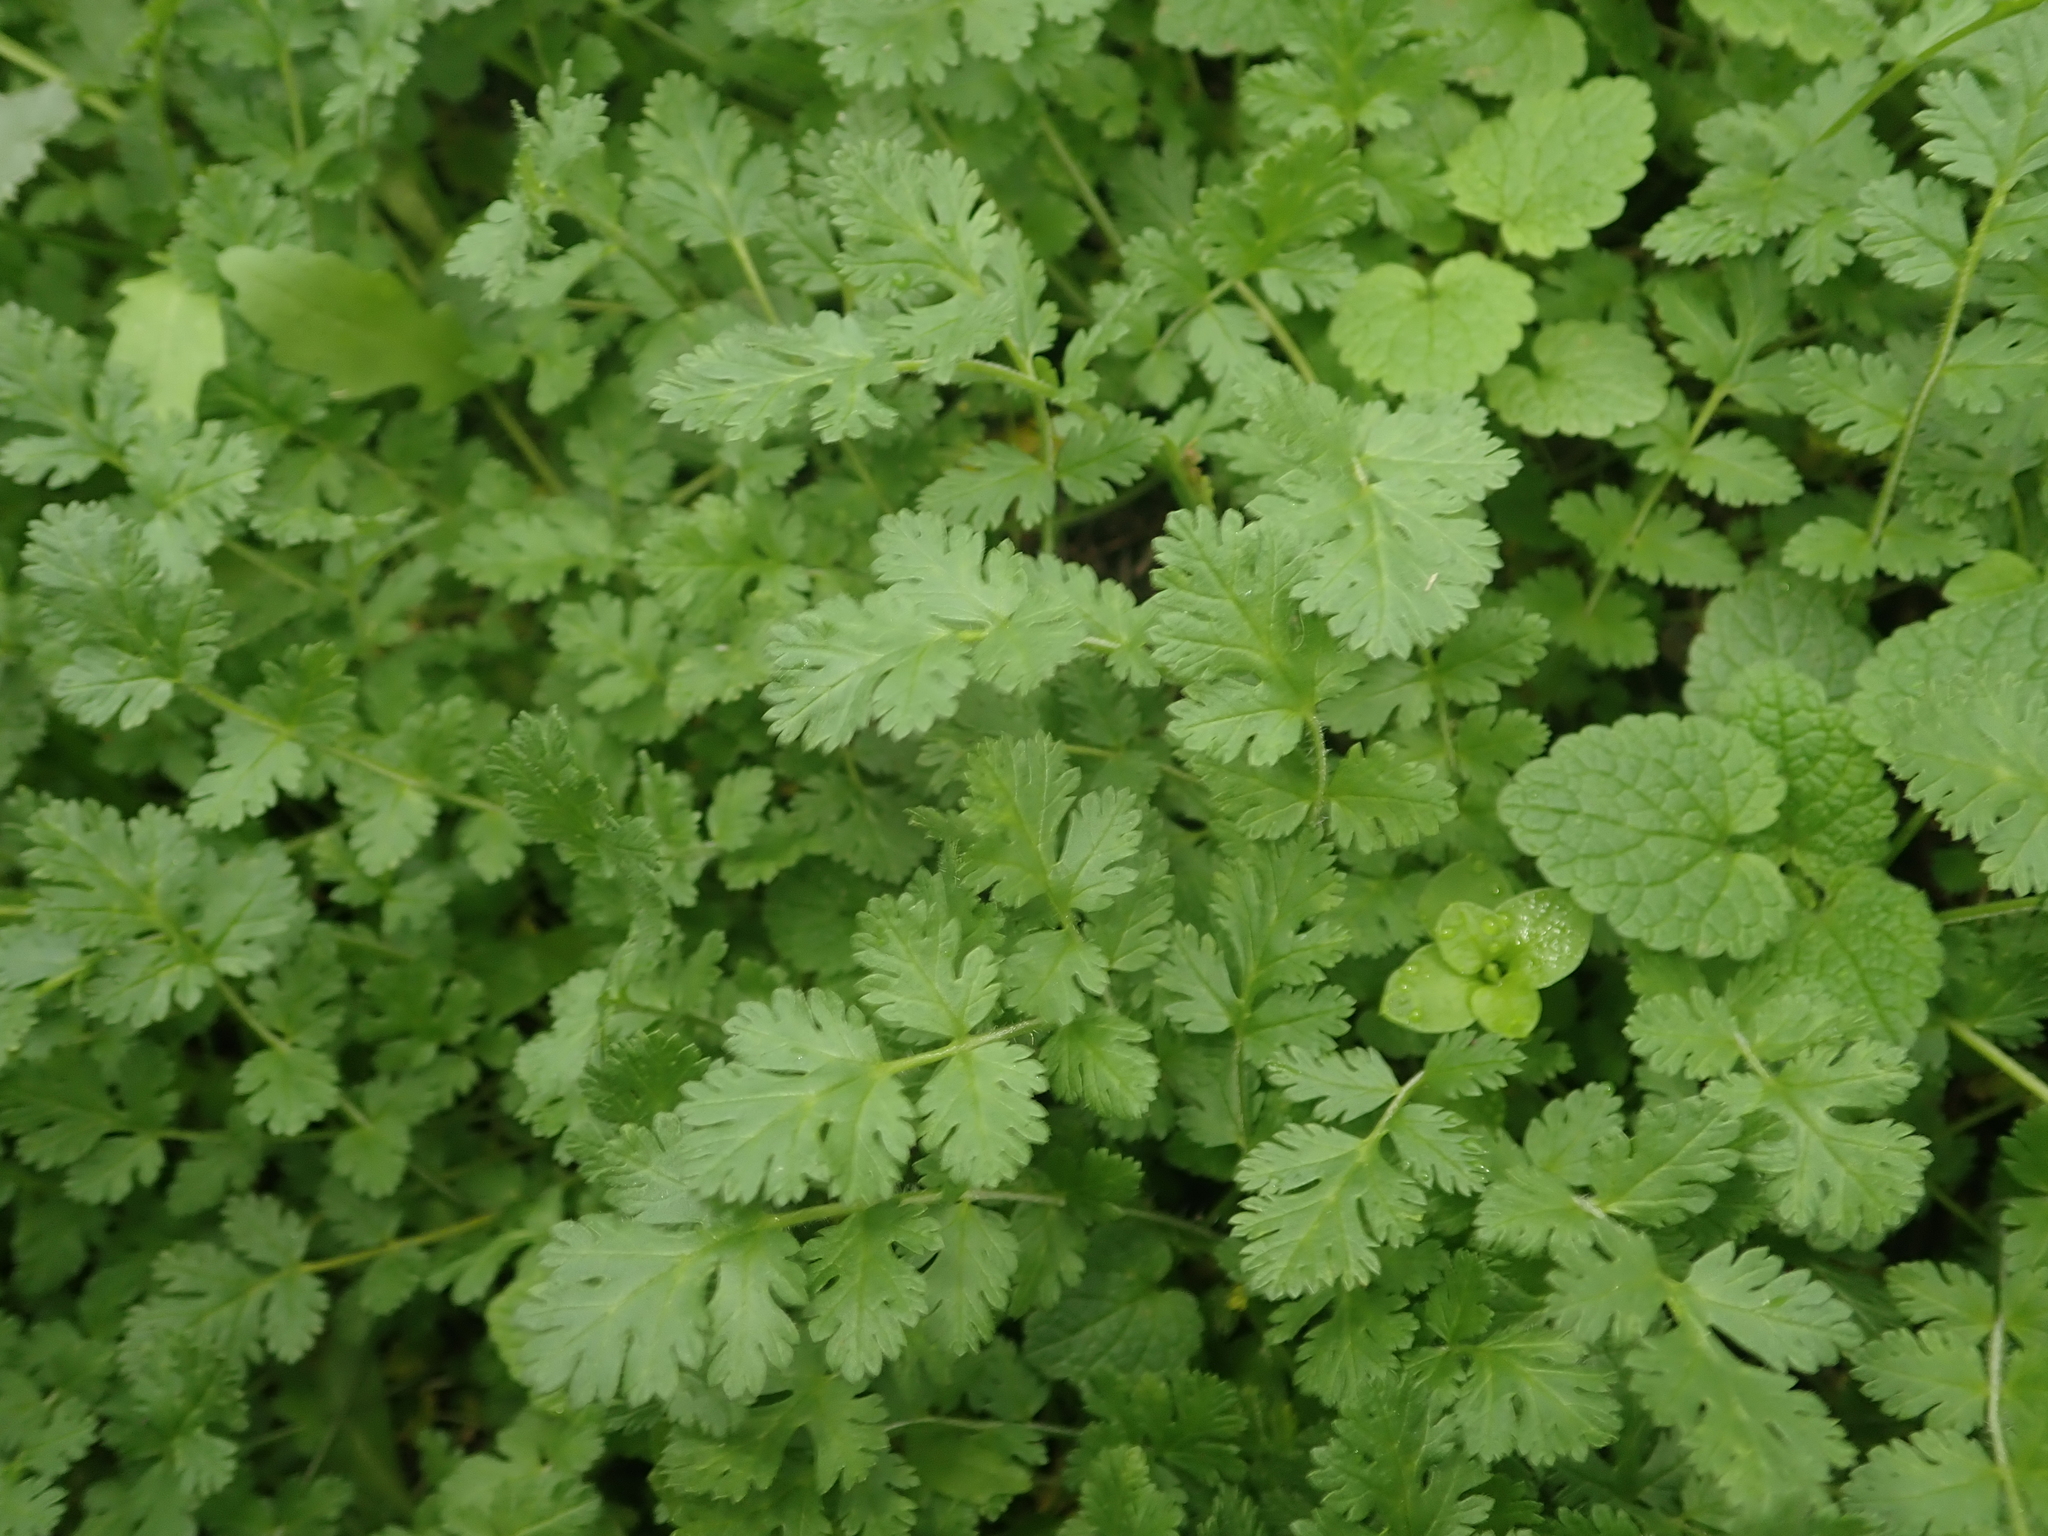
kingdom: Plantae
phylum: Tracheophyta
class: Magnoliopsida
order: Geraniales
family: Geraniaceae
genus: Erodium
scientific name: Erodium cicutarium
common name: Common stork's-bill
